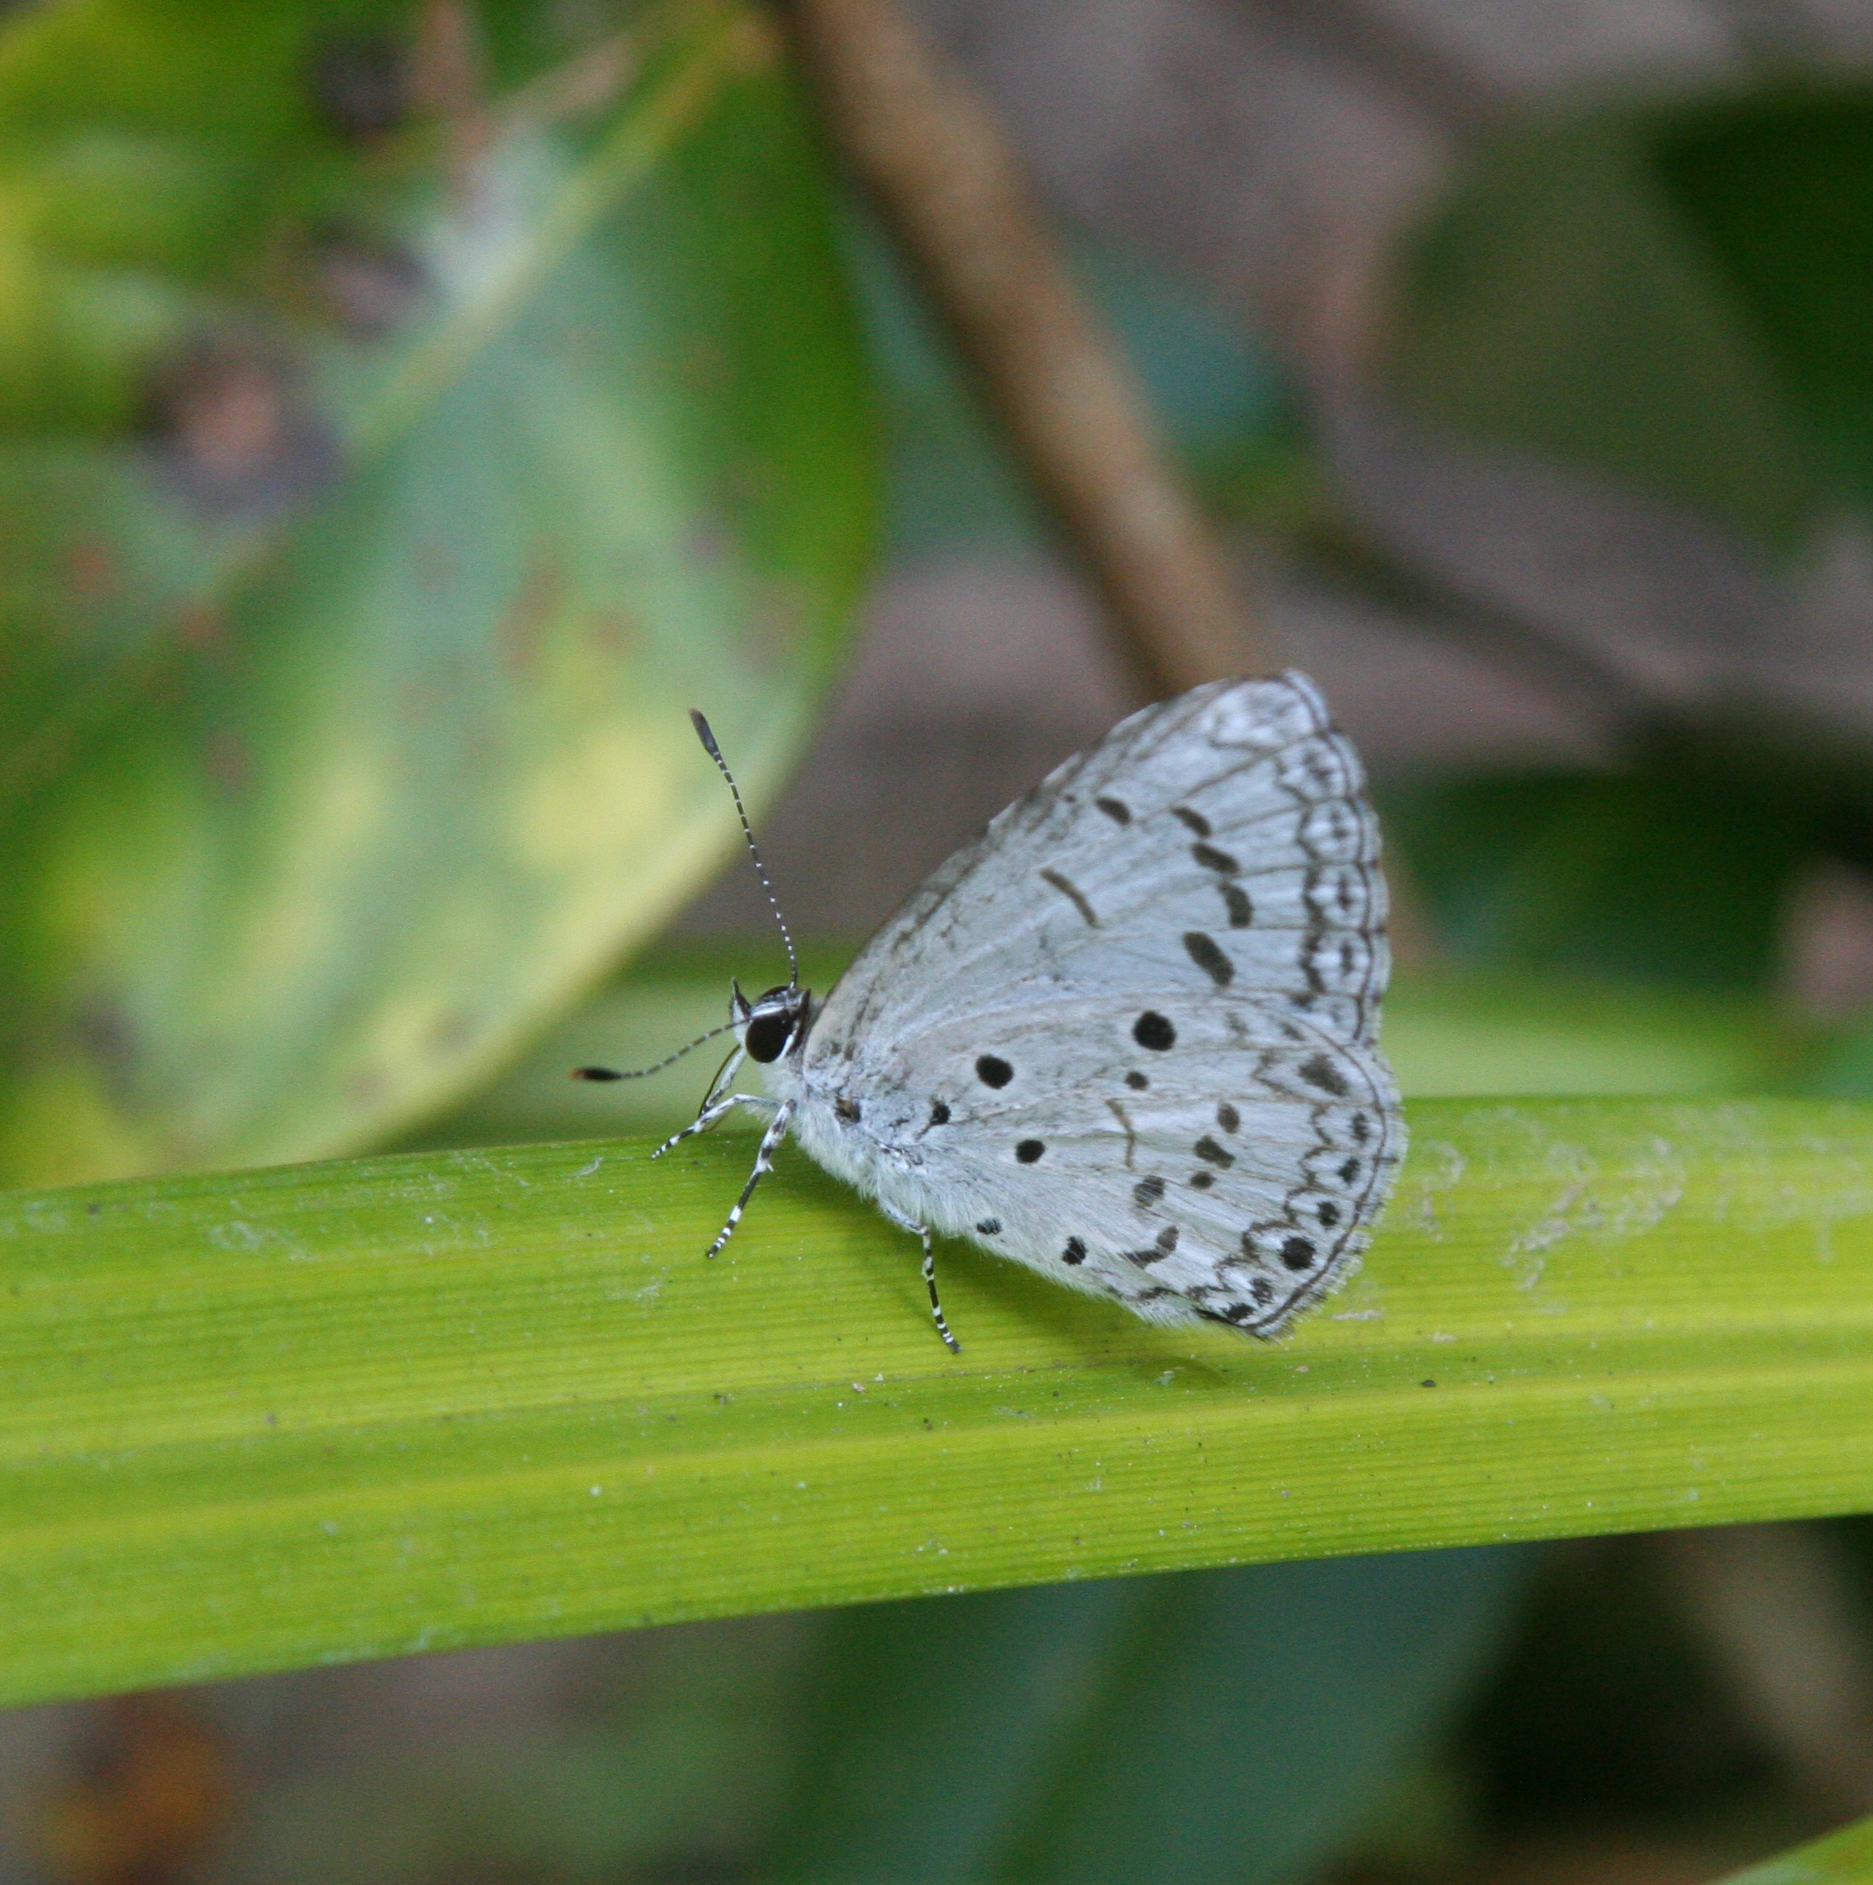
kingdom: Animalia
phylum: Arthropoda
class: Insecta
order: Lepidoptera
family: Lycaenidae
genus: Acytolepis
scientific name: Acytolepis puspa
